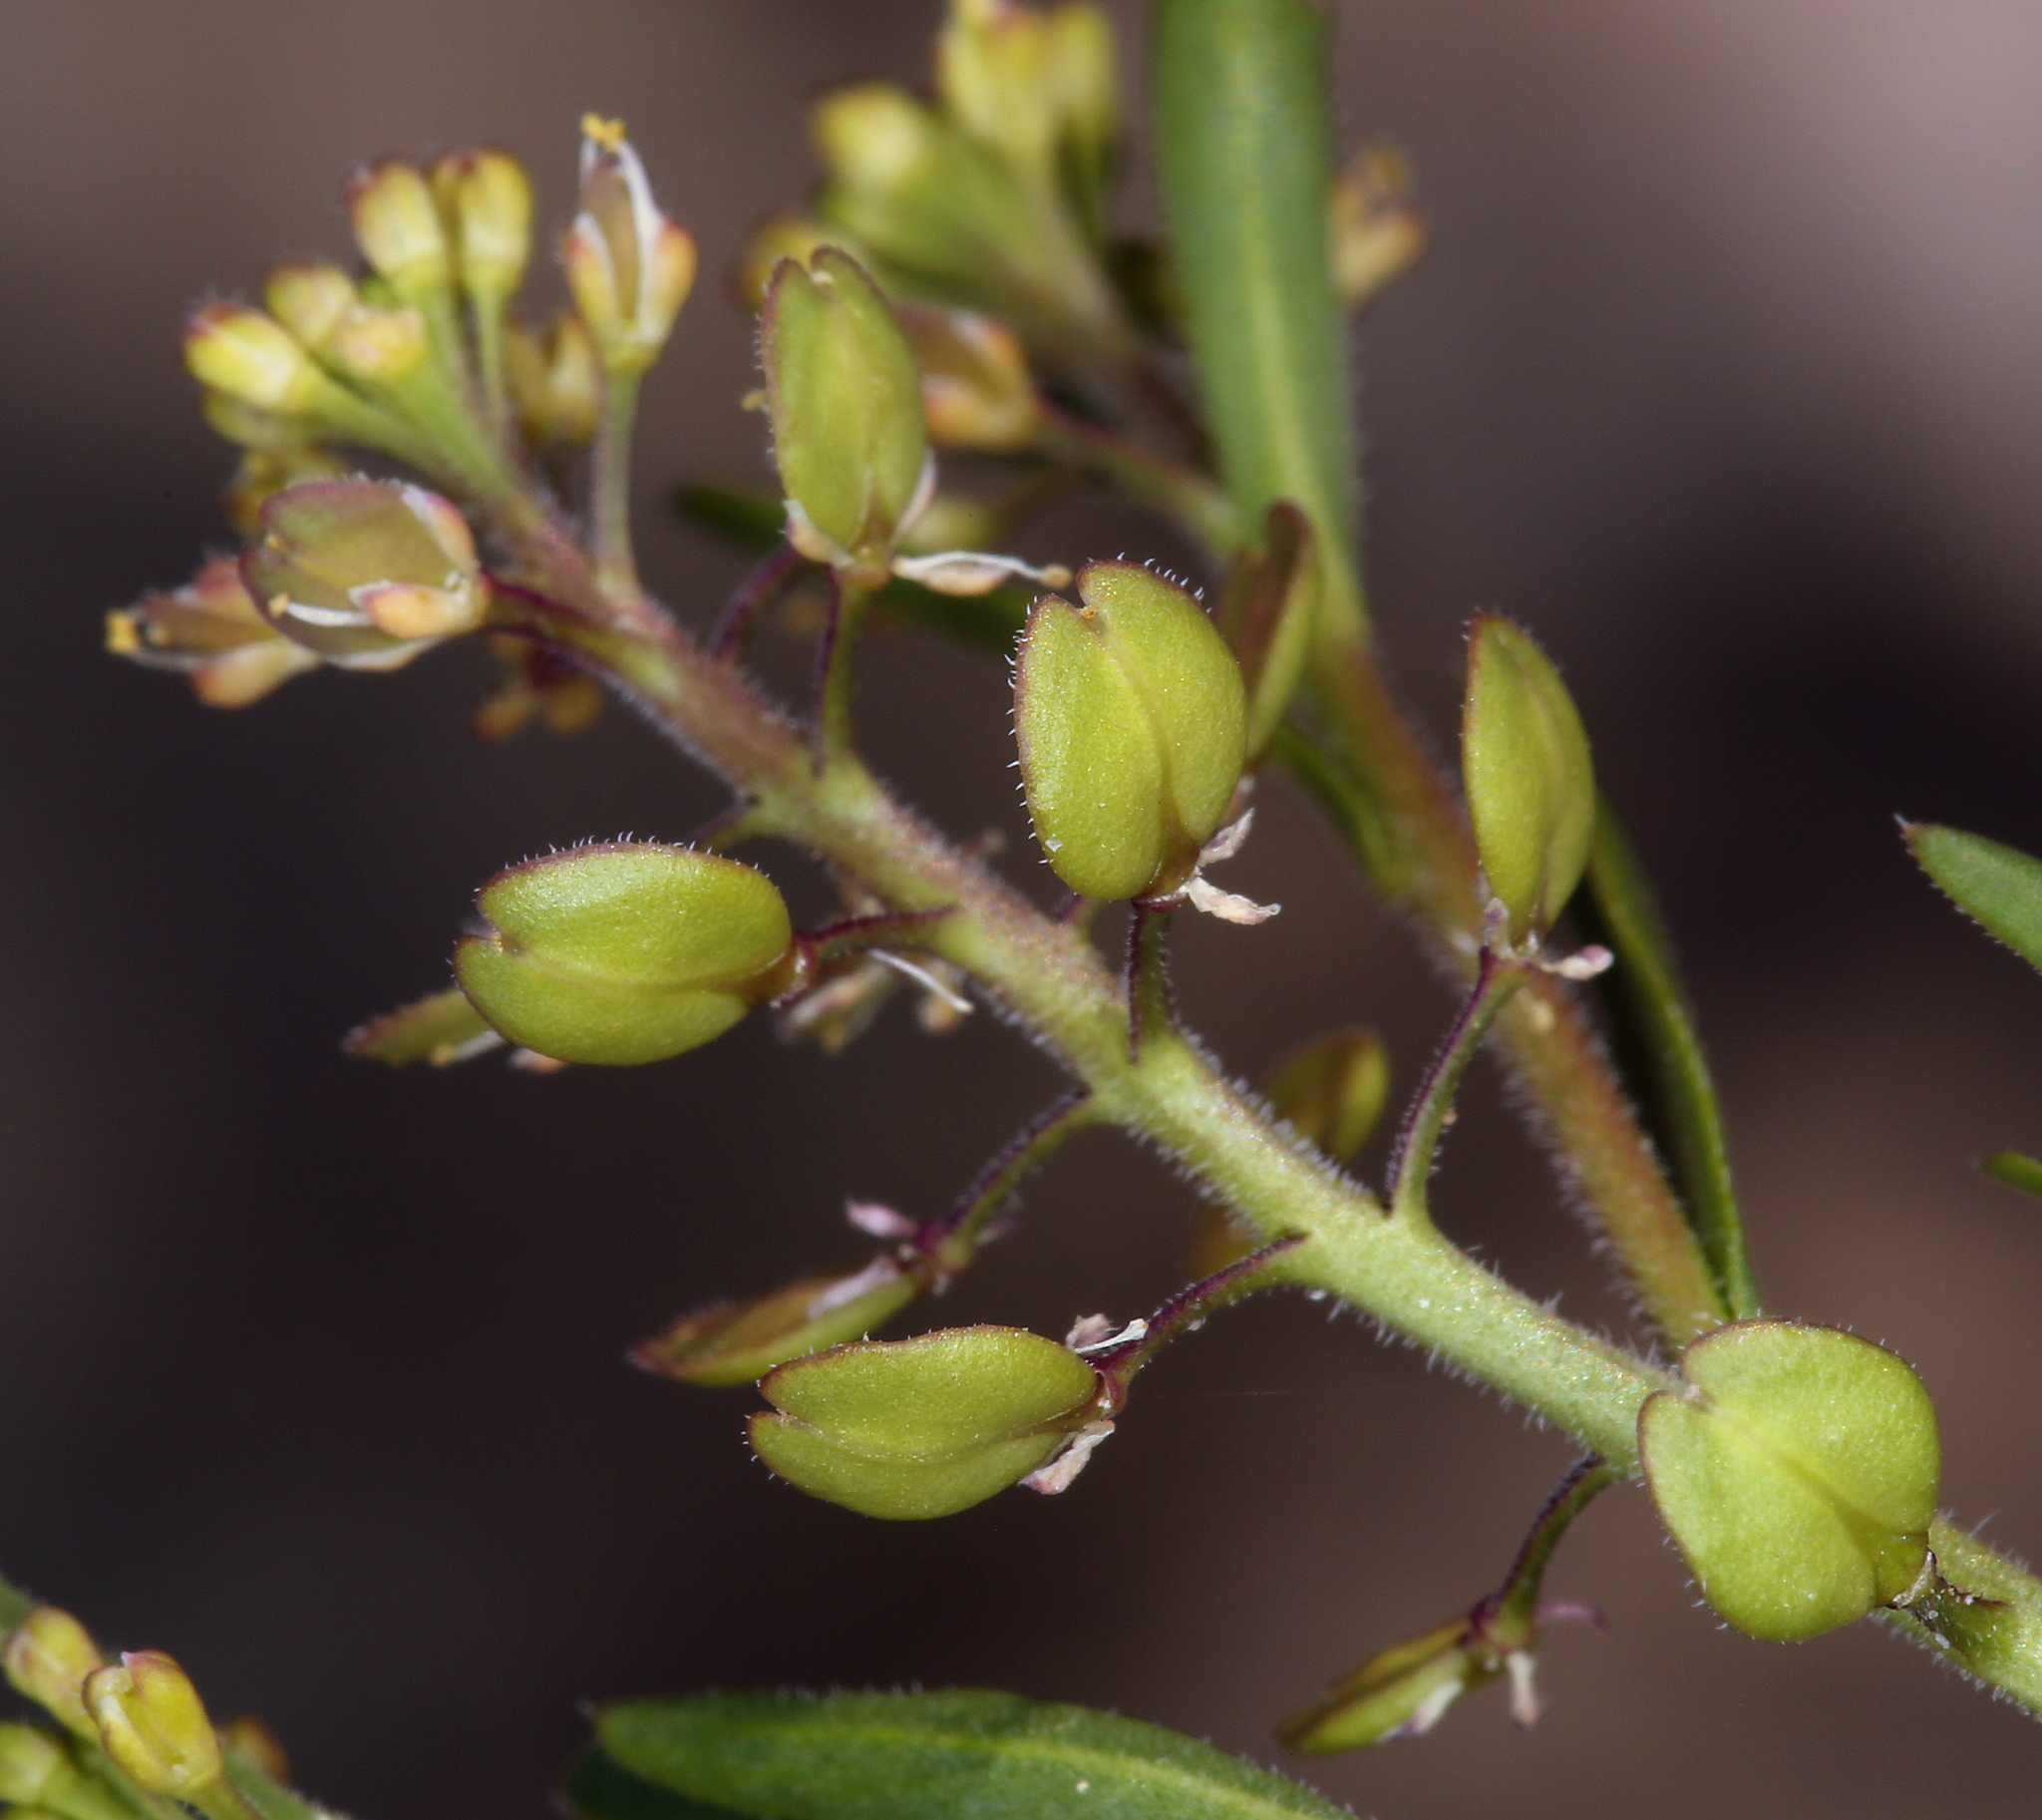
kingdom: Plantae
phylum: Tracheophyta
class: Magnoliopsida
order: Brassicales
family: Brassicaceae
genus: Lepidium
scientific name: Lepidium lasiocarpum
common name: Hairy-pod pepperwort
